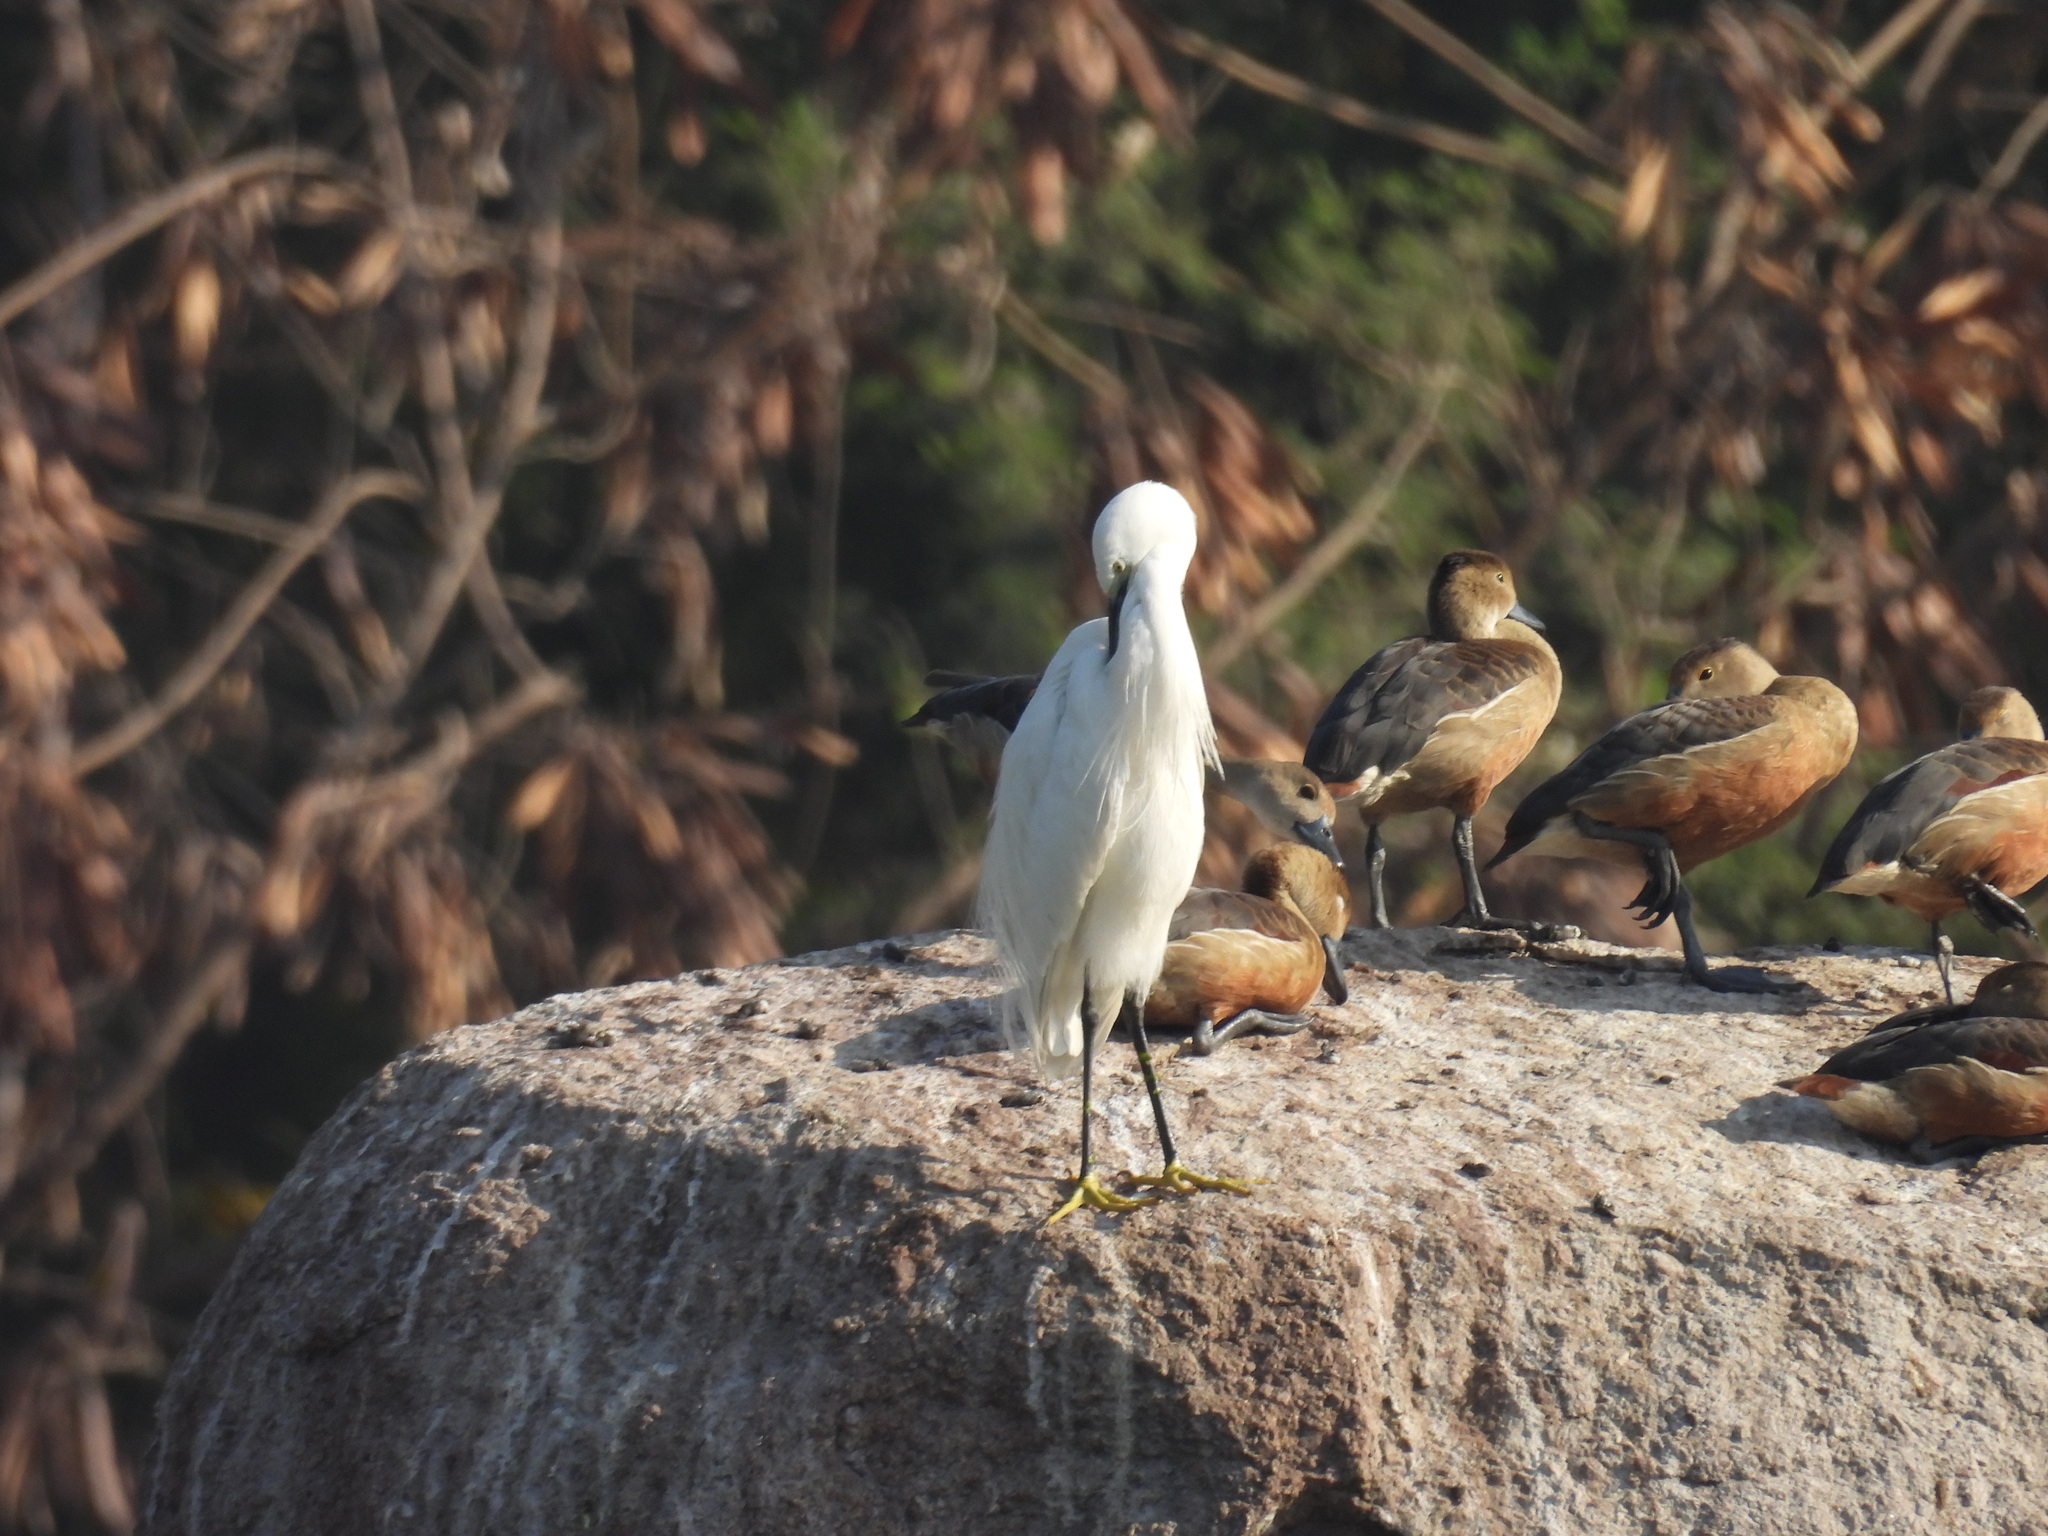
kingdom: Animalia
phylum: Chordata
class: Aves
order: Pelecaniformes
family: Ardeidae
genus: Egretta
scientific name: Egretta garzetta
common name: Little egret
